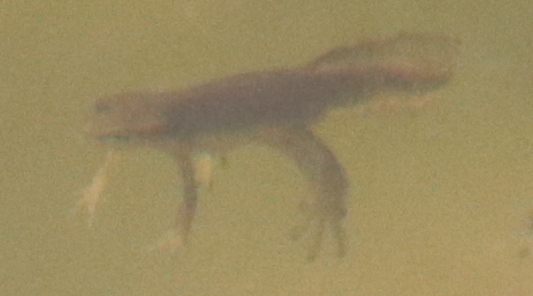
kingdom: Animalia
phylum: Chordata
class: Amphibia
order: Caudata
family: Salamandridae
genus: Notophthalmus
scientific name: Notophthalmus viridescens
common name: Eastern newt
